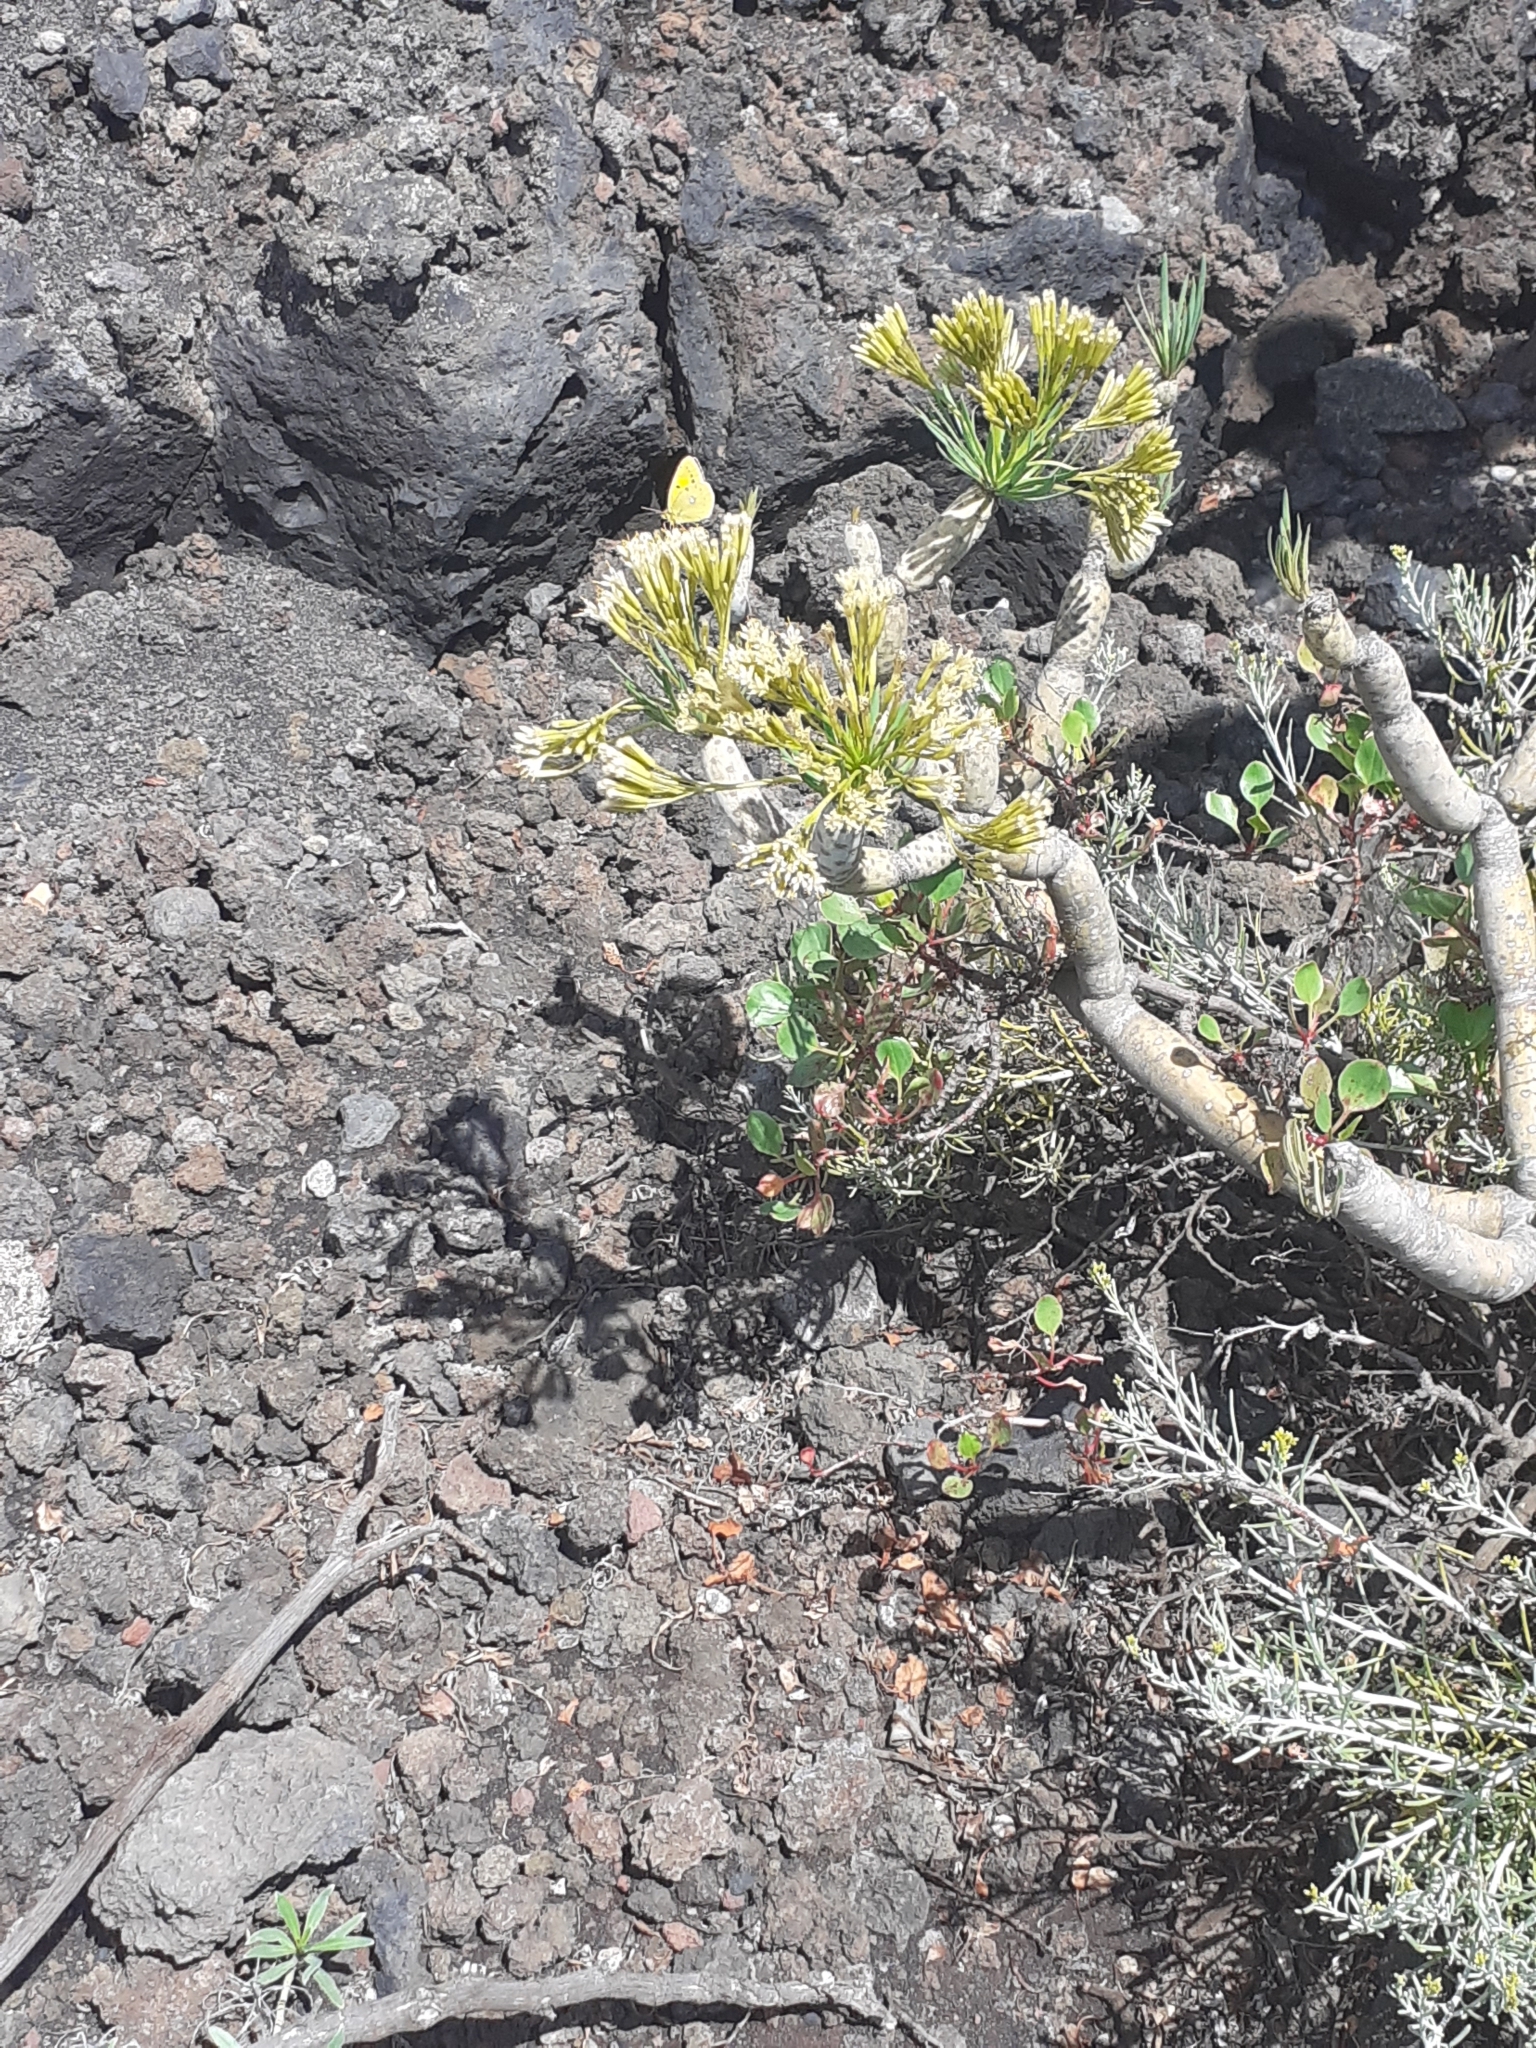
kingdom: Animalia
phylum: Arthropoda
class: Insecta
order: Lepidoptera
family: Pieridae
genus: Colias
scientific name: Colias croceus
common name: Clouded yellow
